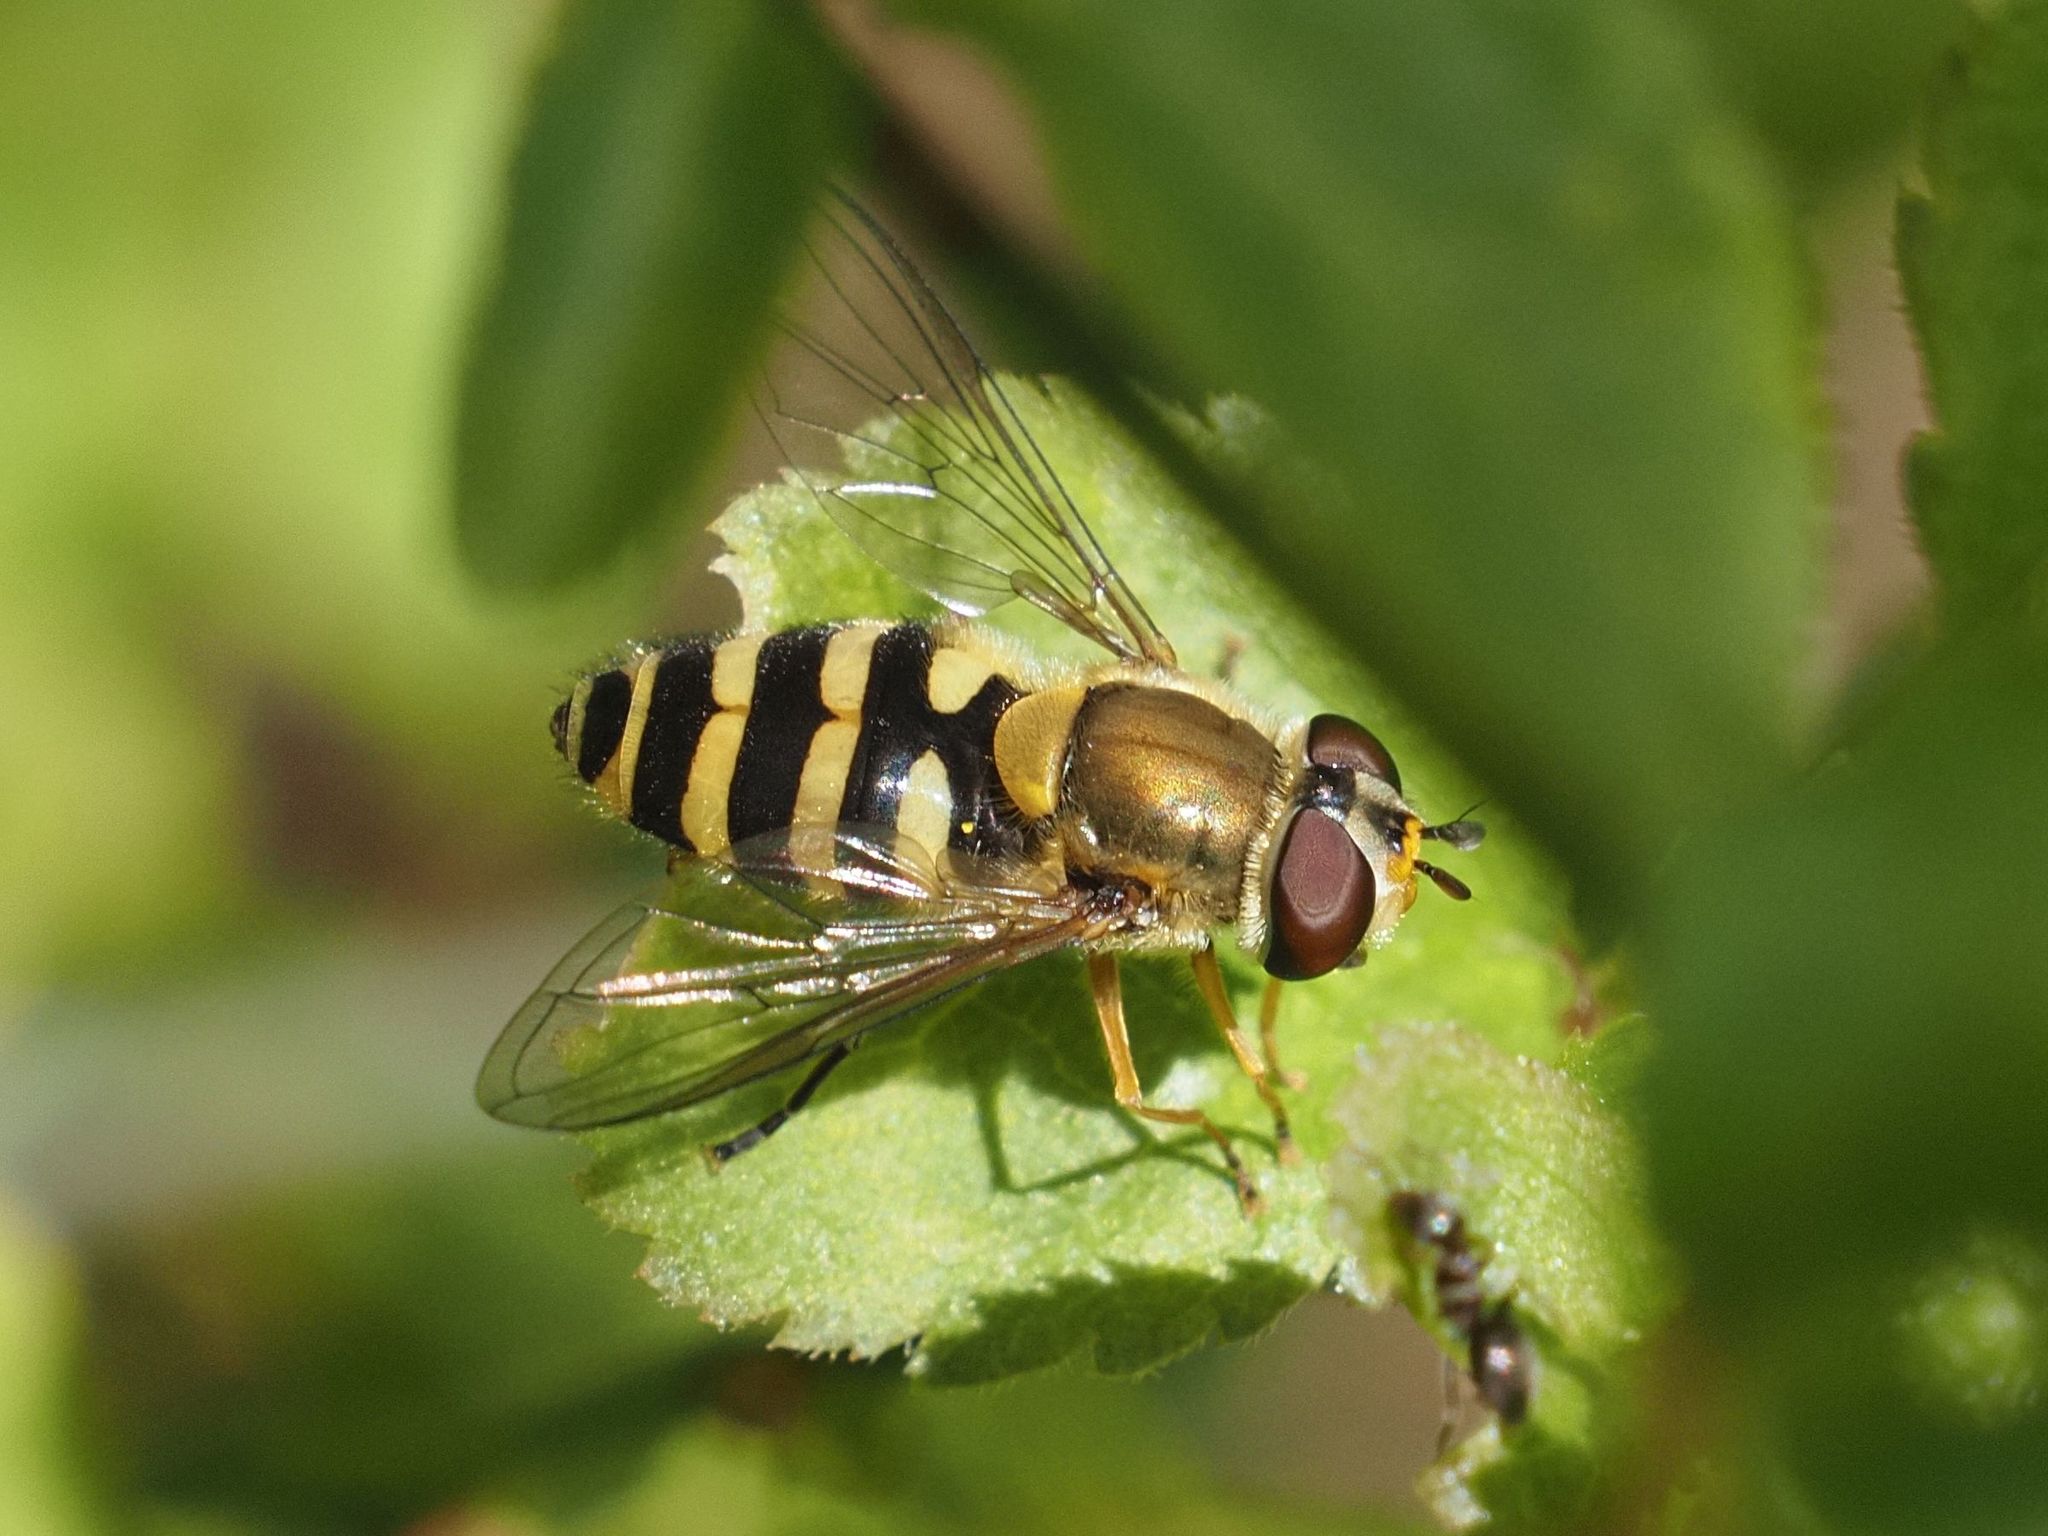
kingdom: Animalia
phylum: Arthropoda
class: Insecta
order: Diptera
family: Syrphidae
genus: Syrphus
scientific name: Syrphus ribesii
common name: Common flower fly
